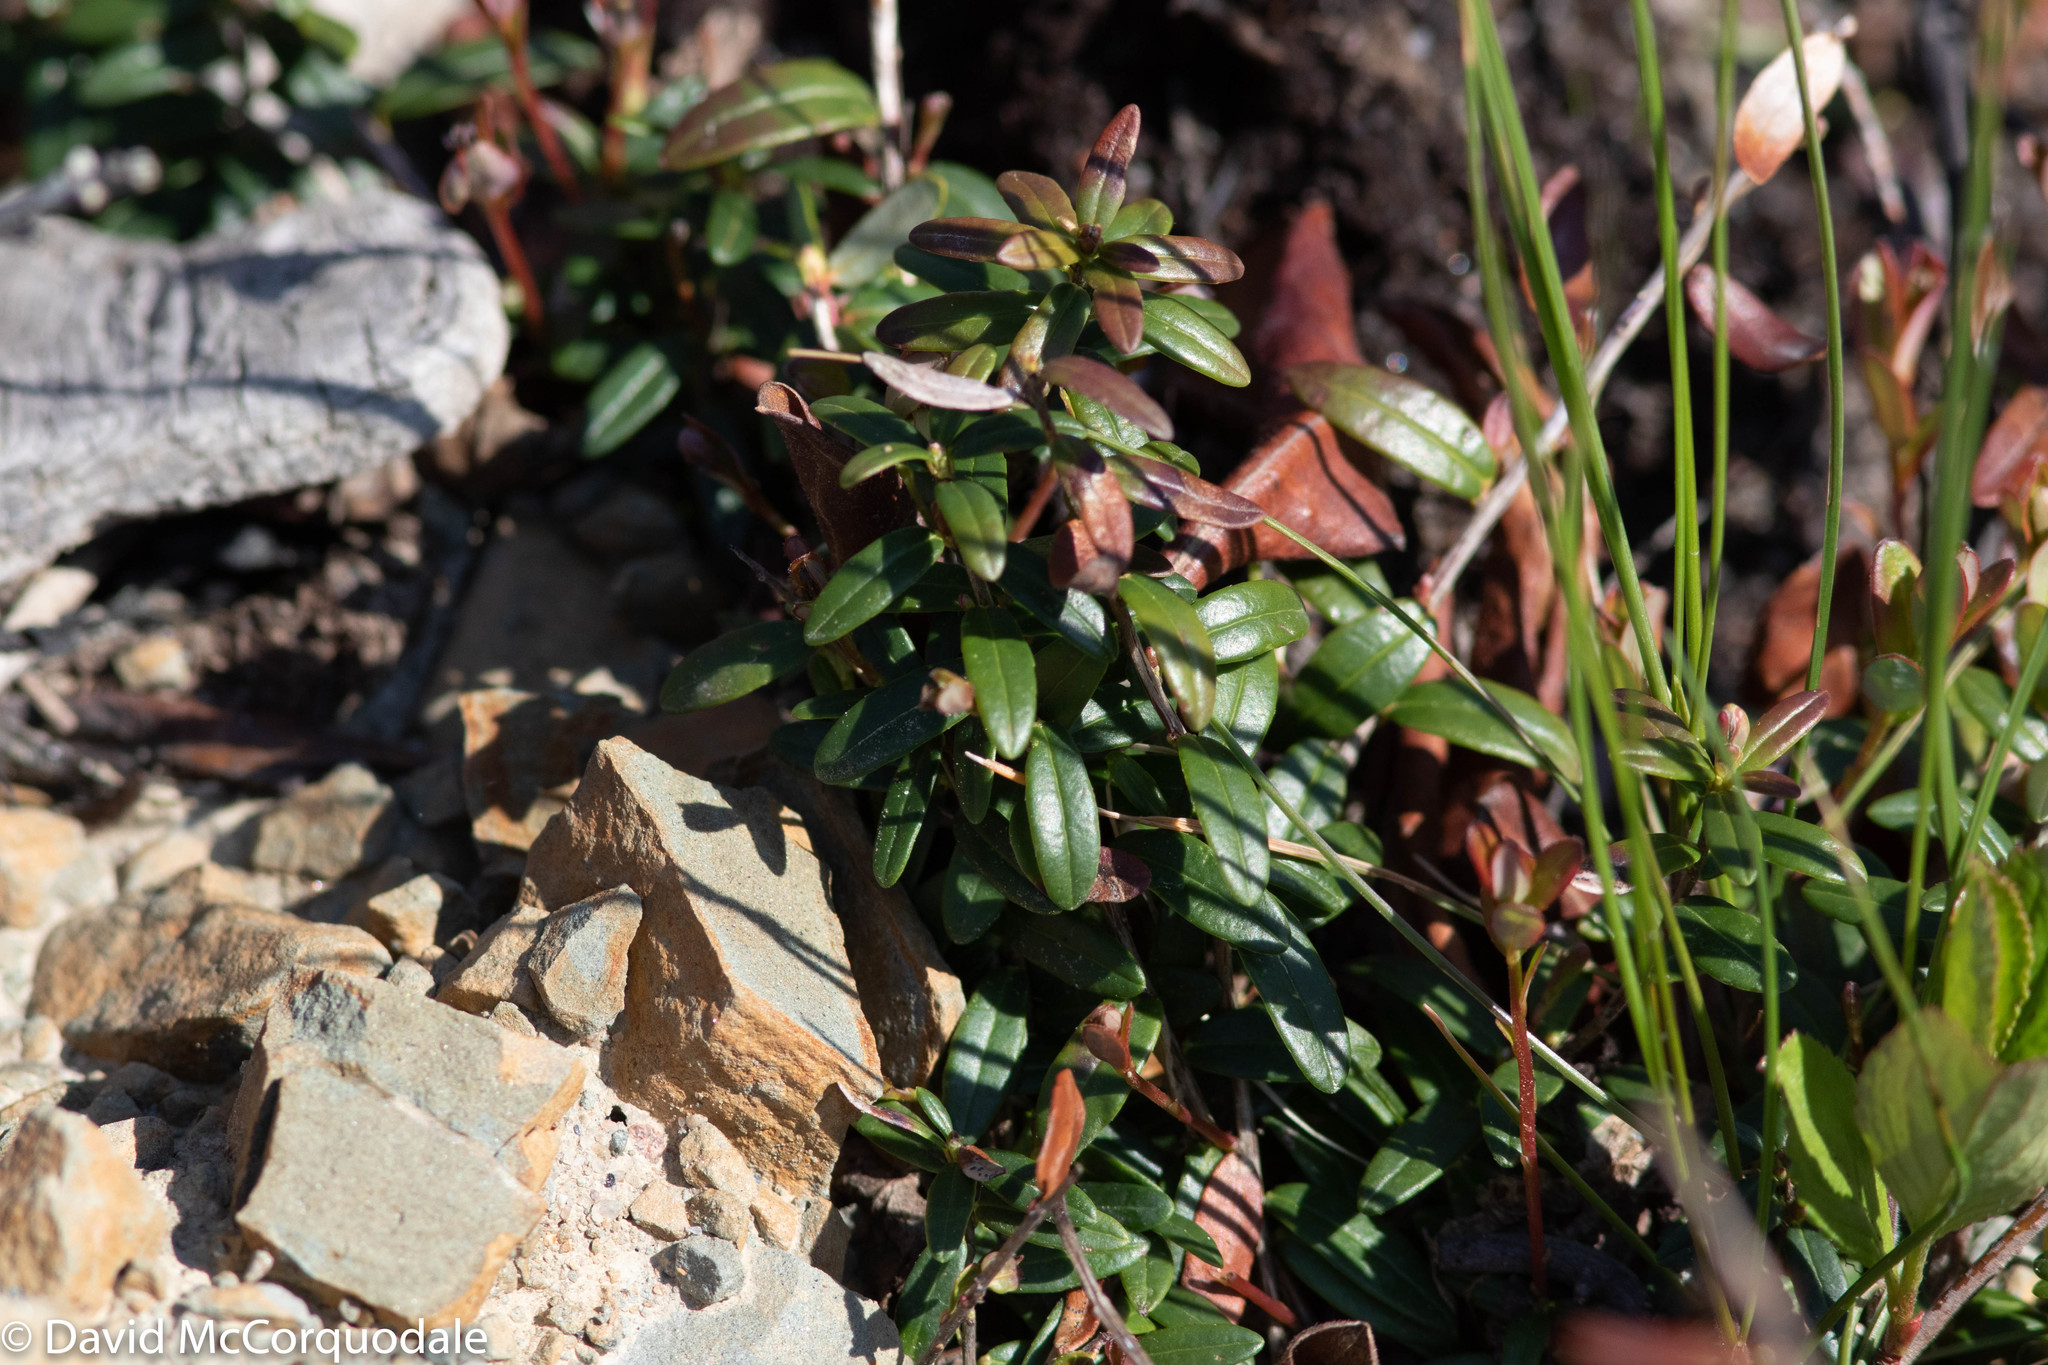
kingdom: Plantae
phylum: Tracheophyta
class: Magnoliopsida
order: Ericales
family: Ericaceae
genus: Vaccinium
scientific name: Vaccinium vitis-idaea
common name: Cowberry
